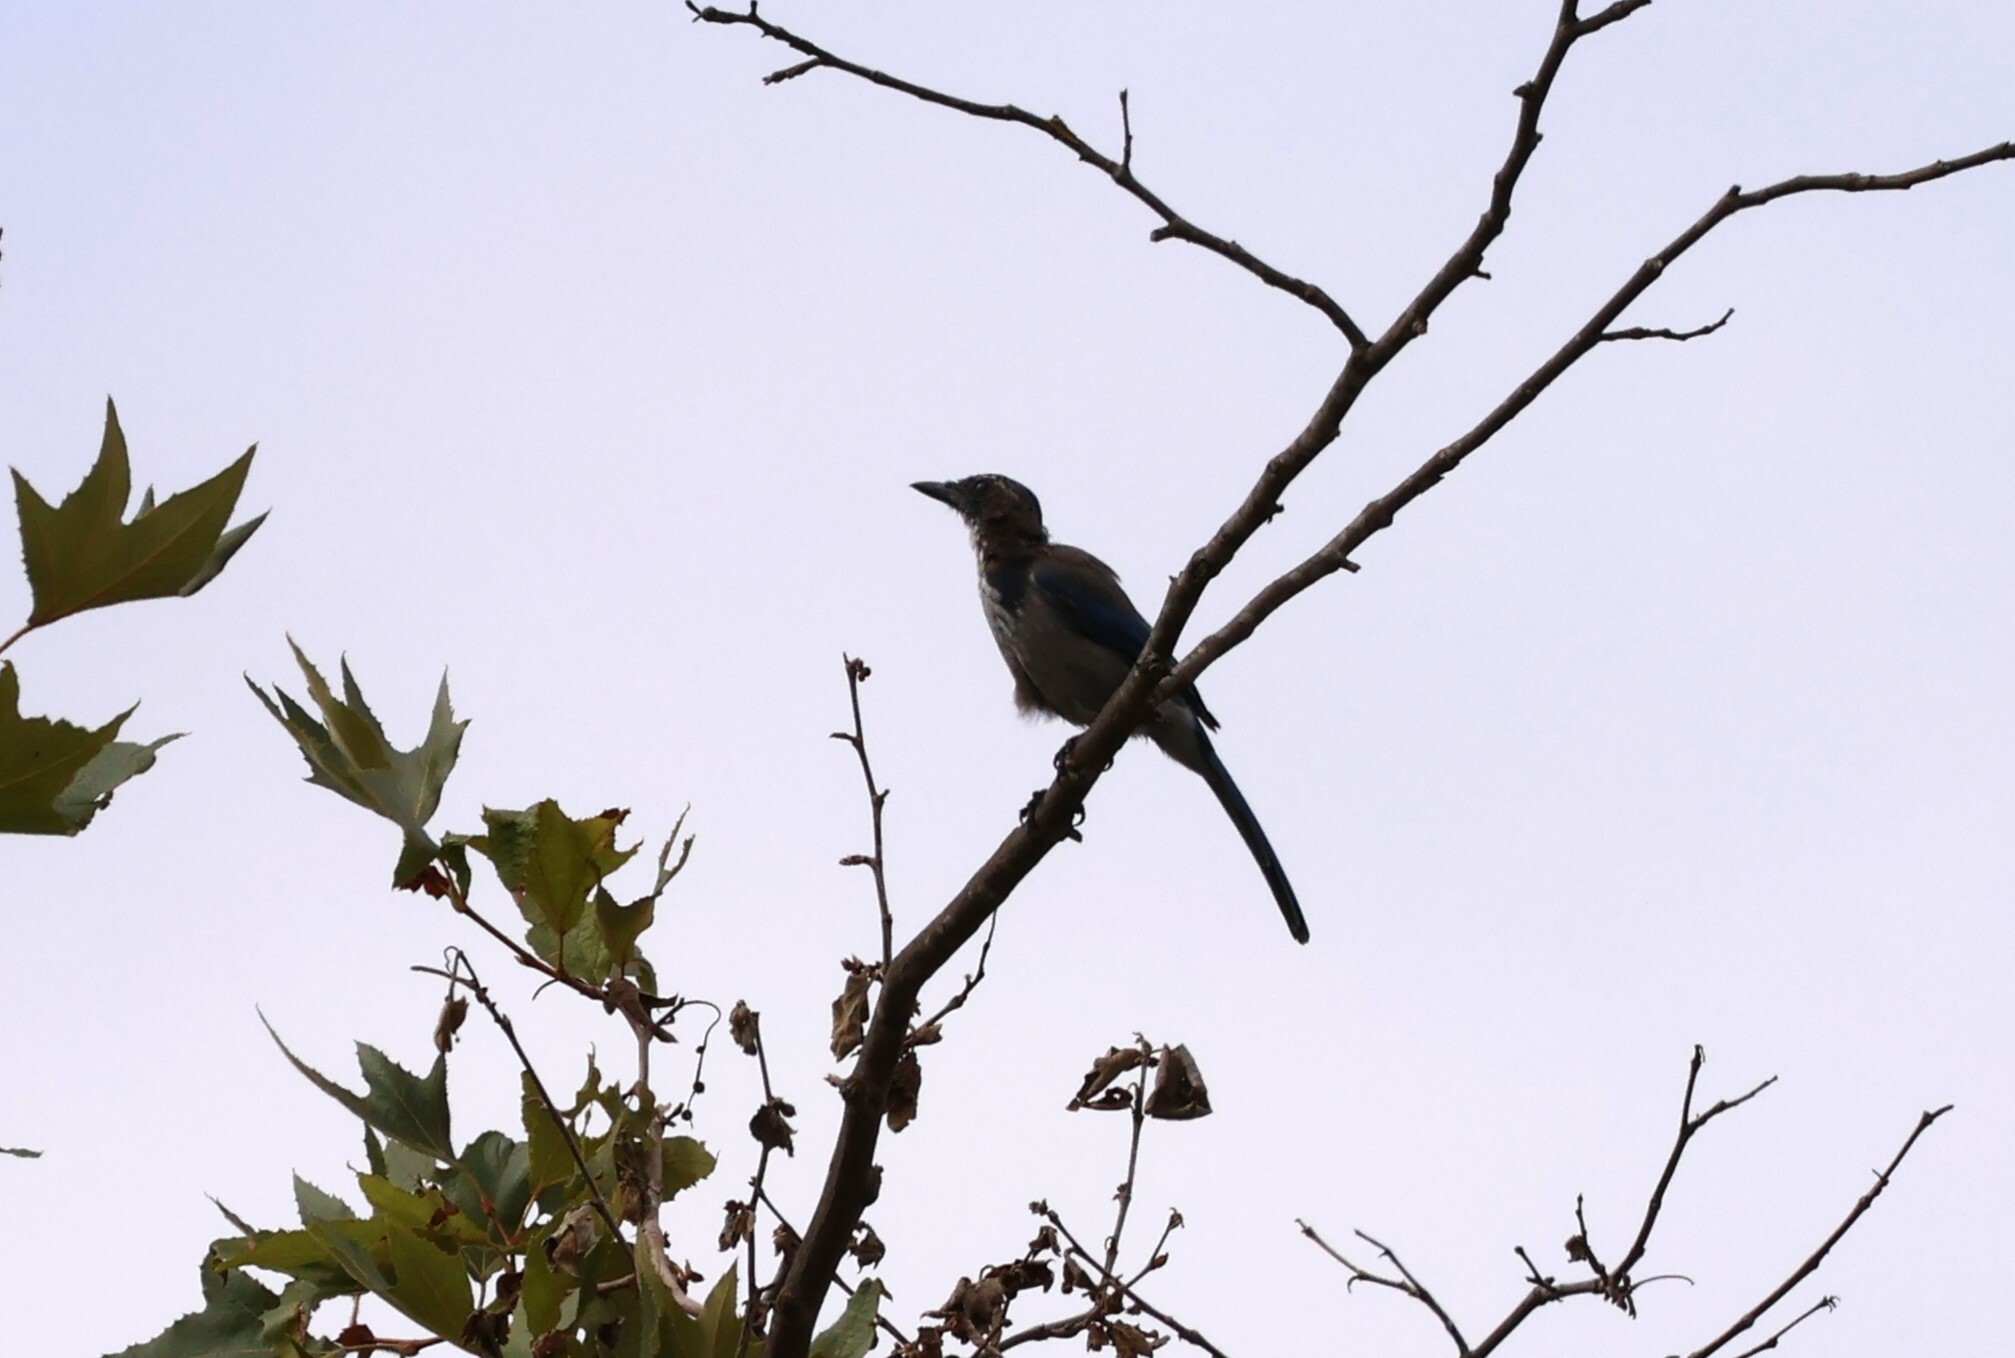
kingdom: Animalia
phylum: Chordata
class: Aves
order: Passeriformes
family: Corvidae
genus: Aphelocoma
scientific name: Aphelocoma californica
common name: California scrub-jay
